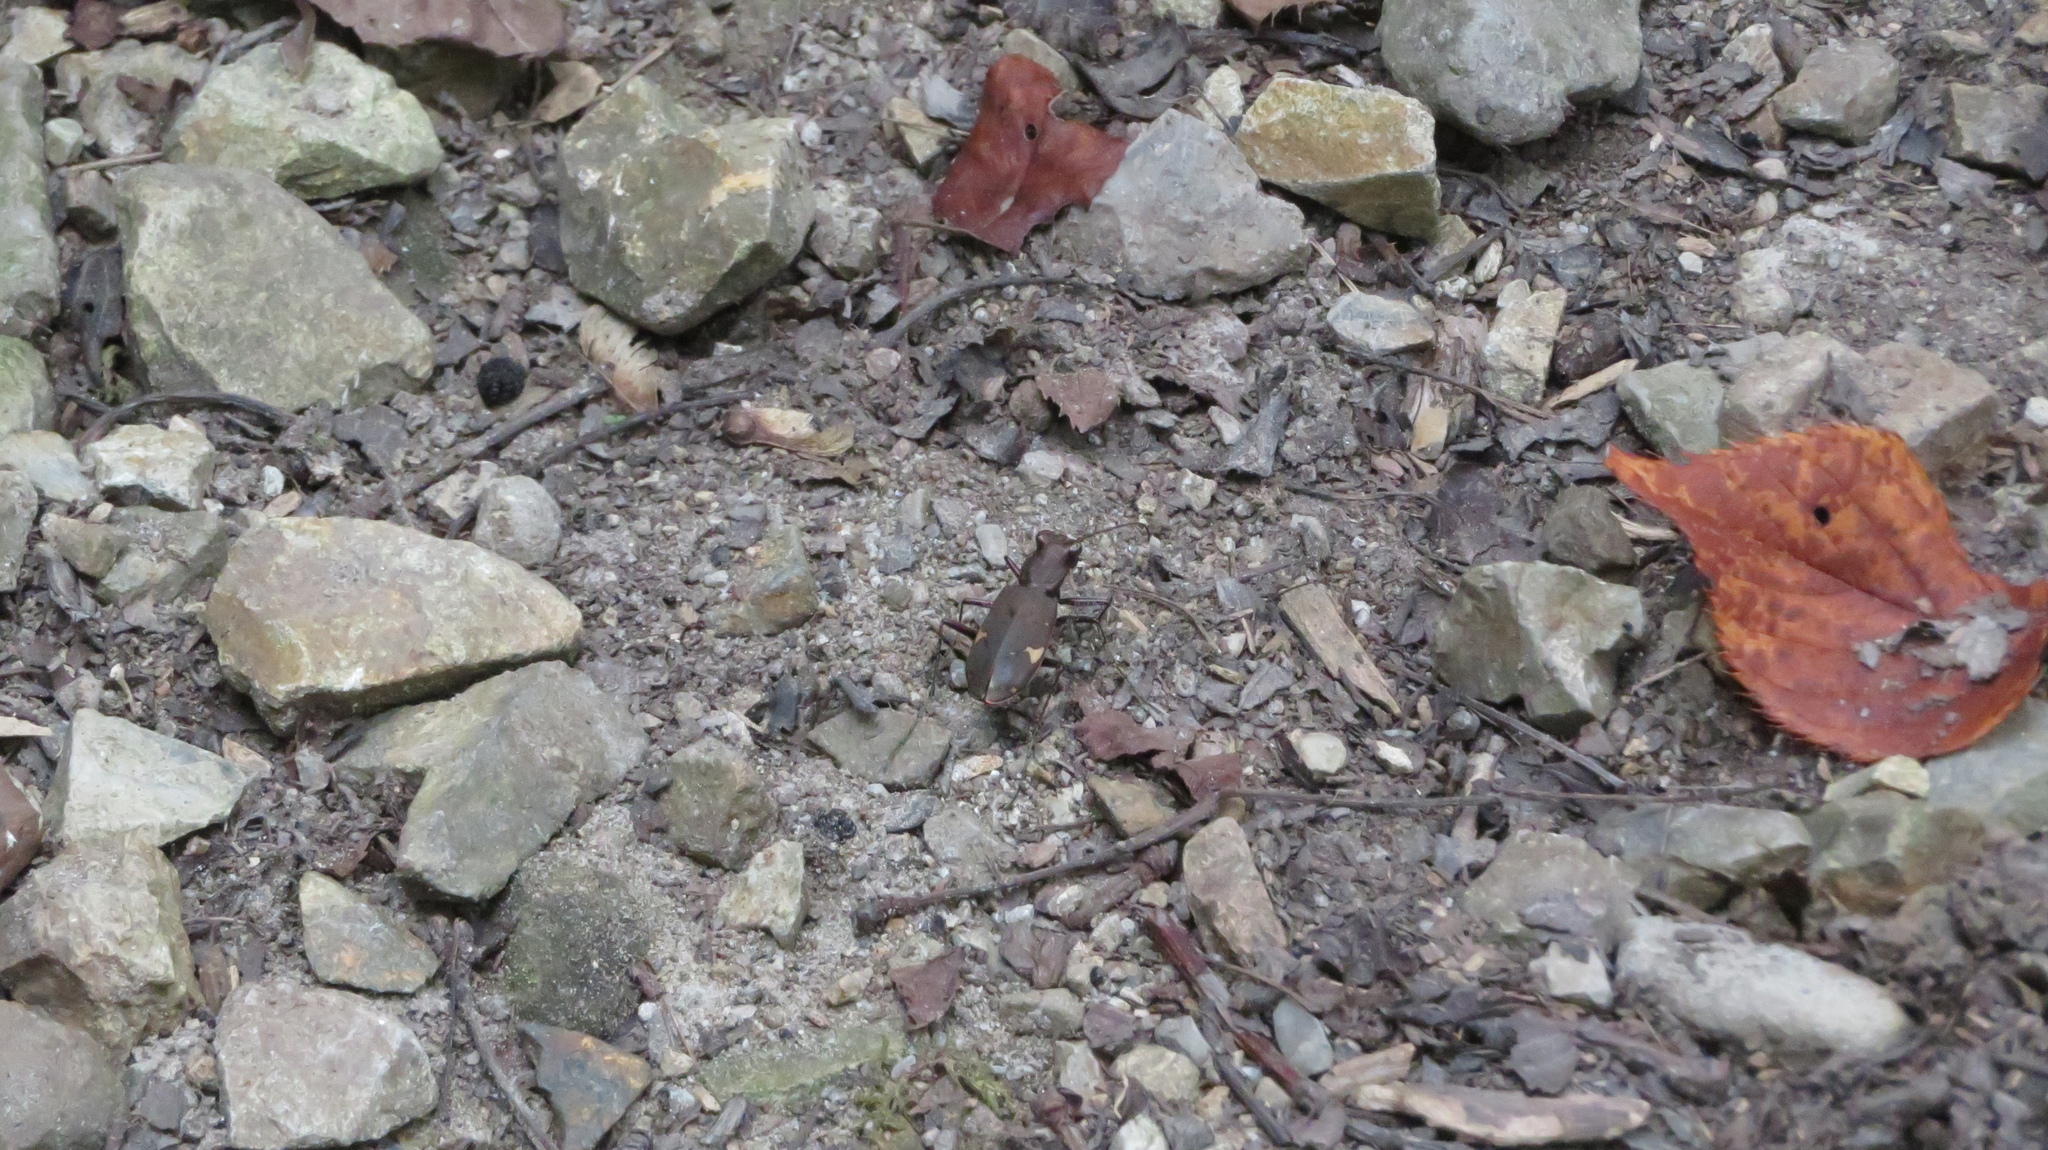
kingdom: Animalia
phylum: Arthropoda
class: Insecta
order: Coleoptera
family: Carabidae
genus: Cicindela
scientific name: Cicindela japana
